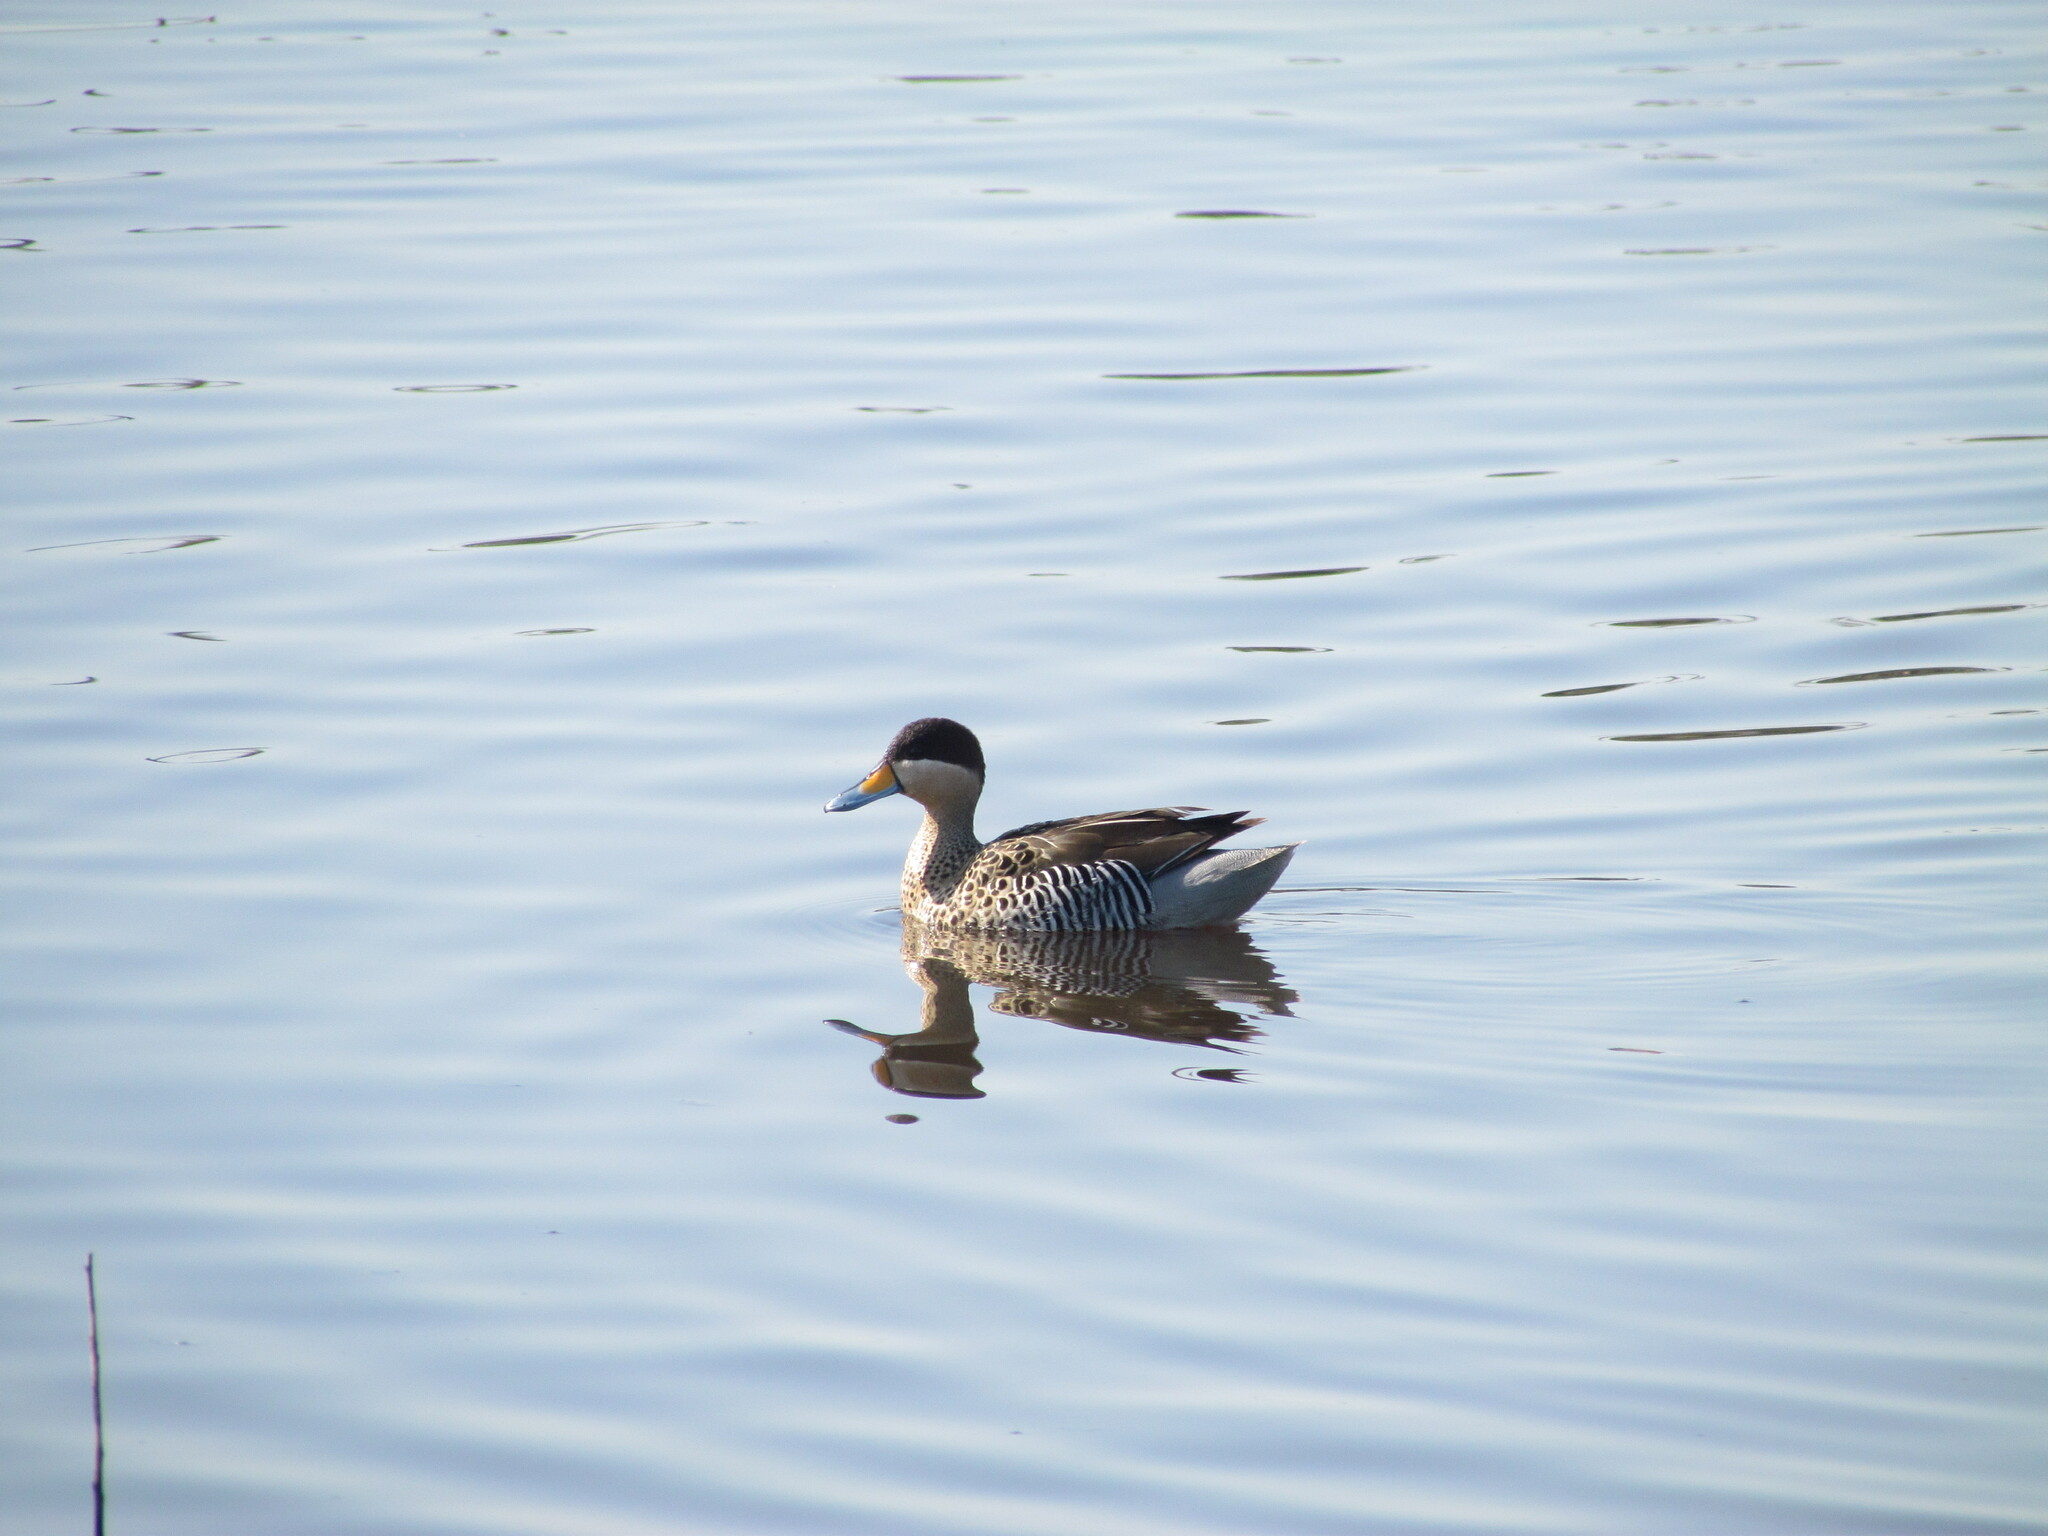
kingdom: Animalia
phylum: Chordata
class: Aves
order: Anseriformes
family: Anatidae
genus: Spatula
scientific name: Spatula versicolor
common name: Silver teal
